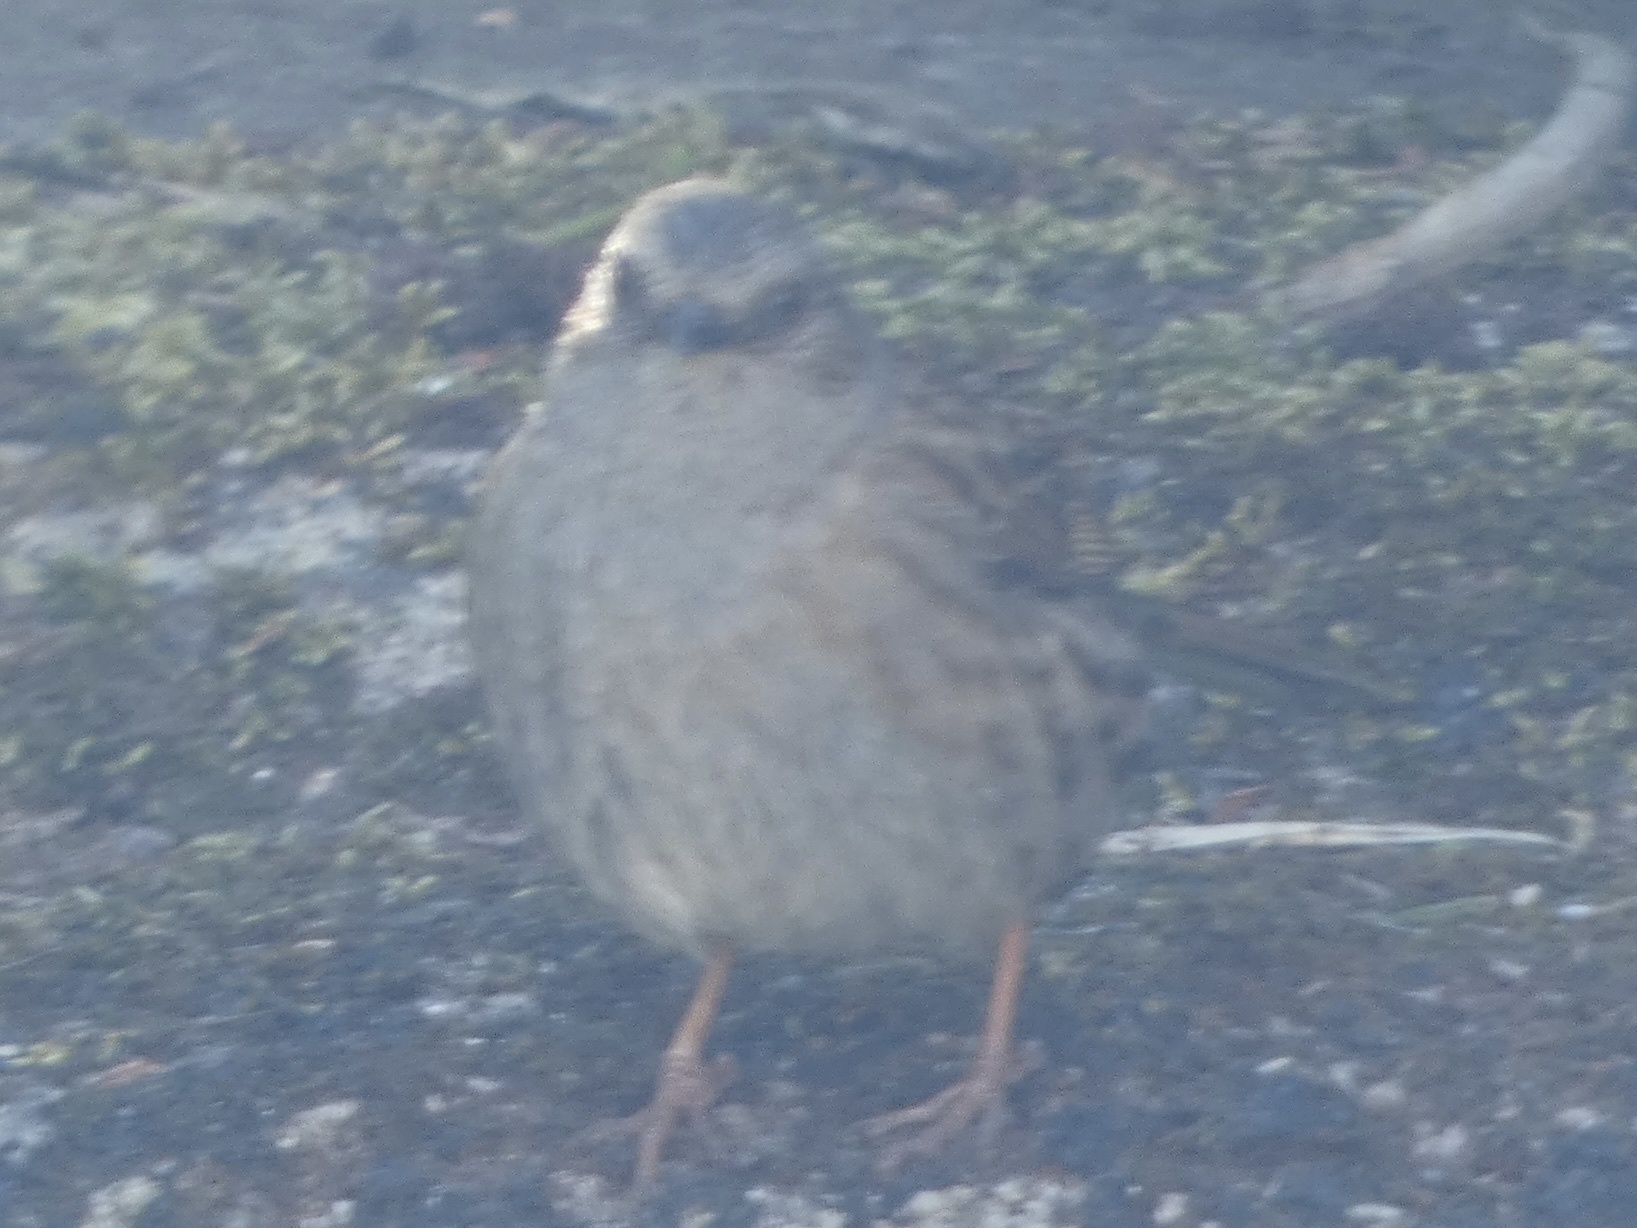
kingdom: Animalia
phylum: Chordata
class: Aves
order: Passeriformes
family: Prunellidae
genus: Prunella
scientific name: Prunella modularis
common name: Dunnock
